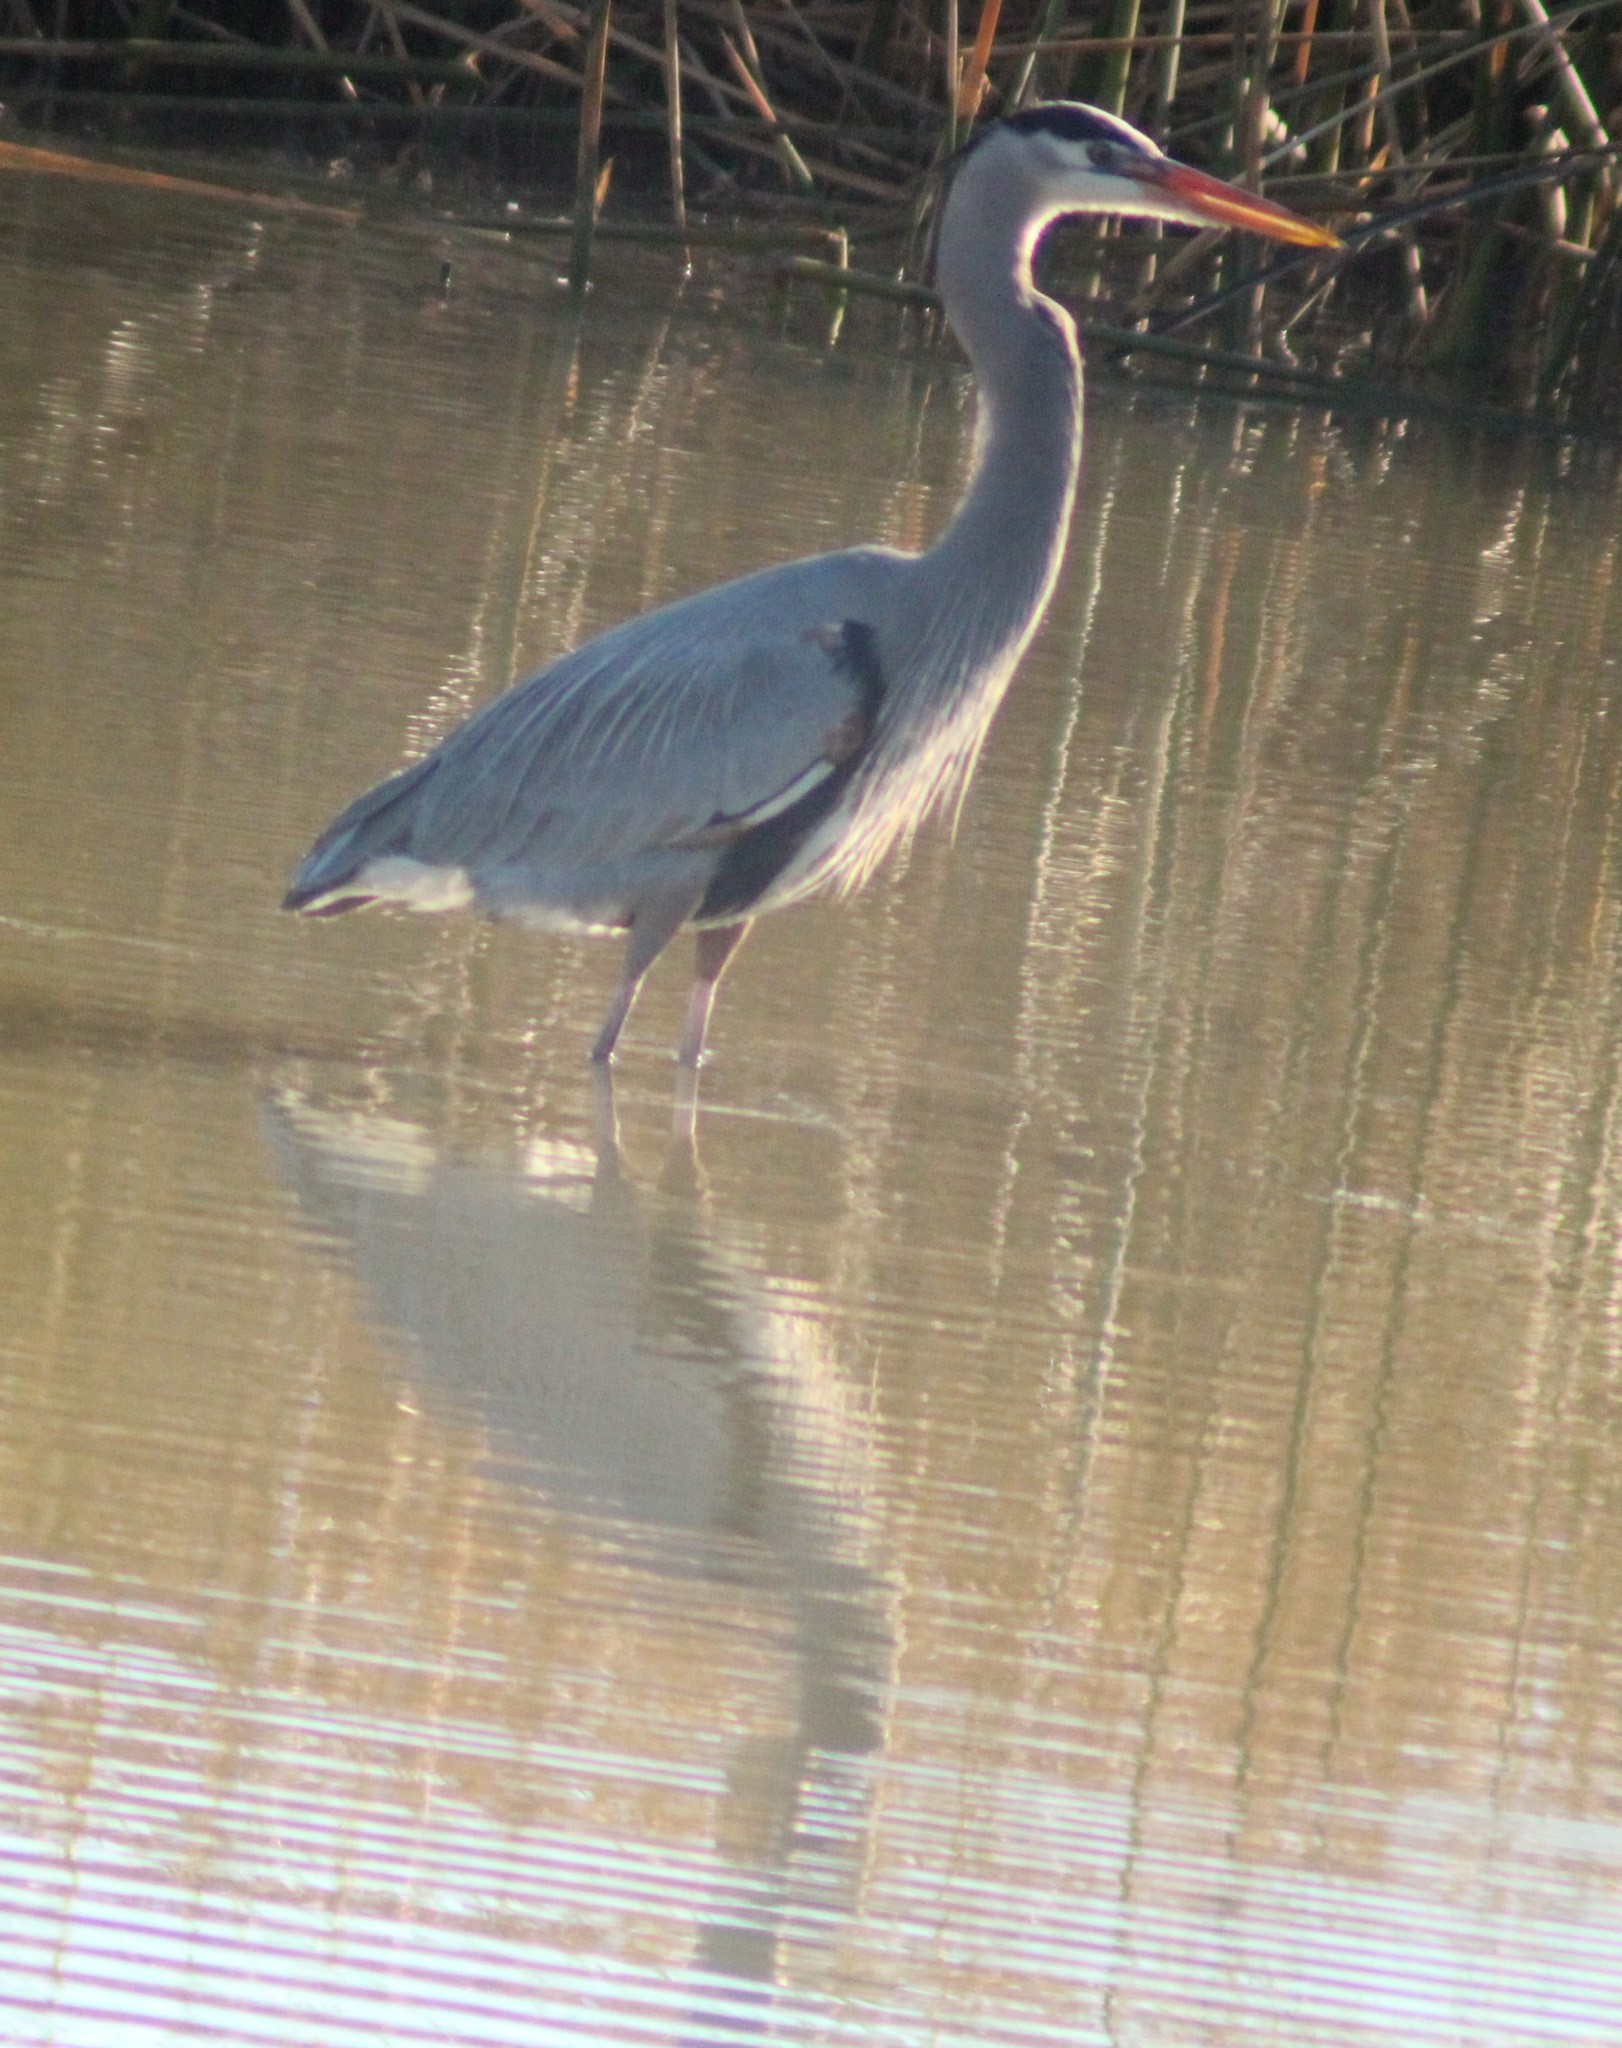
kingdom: Animalia
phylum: Chordata
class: Aves
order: Pelecaniformes
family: Ardeidae
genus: Ardea
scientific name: Ardea herodias
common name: Great blue heron
